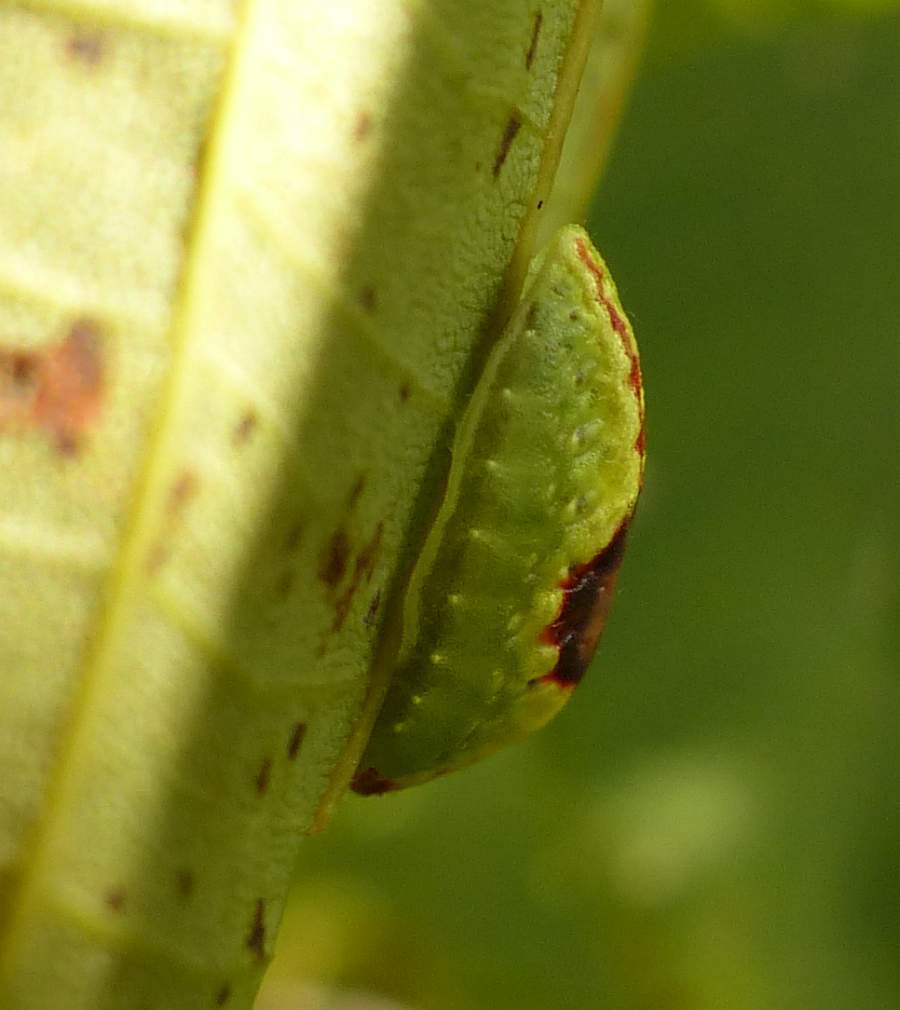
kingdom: Animalia
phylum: Arthropoda
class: Insecta
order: Lepidoptera
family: Limacodidae
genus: Tortricidia
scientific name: Tortricidia flexuosa
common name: Abbreviated button slug moth
